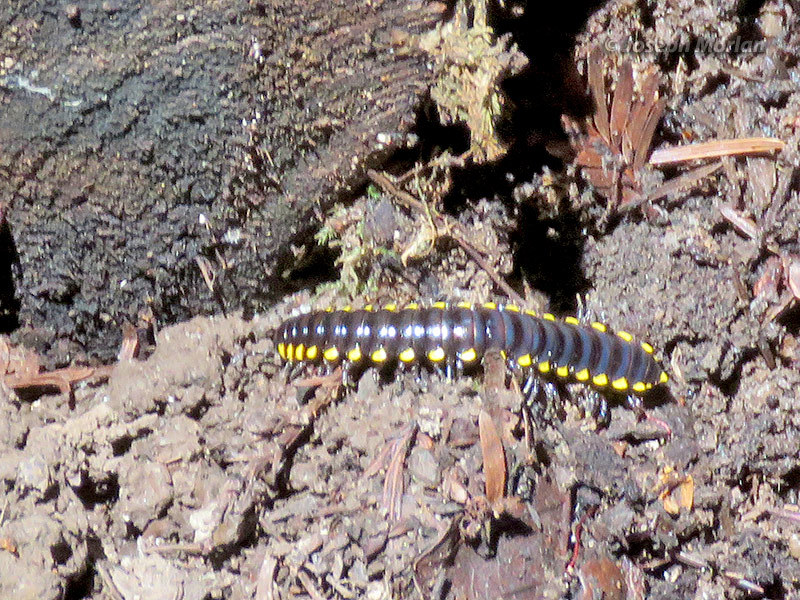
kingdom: Animalia
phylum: Arthropoda
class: Diplopoda
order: Polydesmida
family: Xystodesmidae
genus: Harpaphe
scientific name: Harpaphe haydeniana
